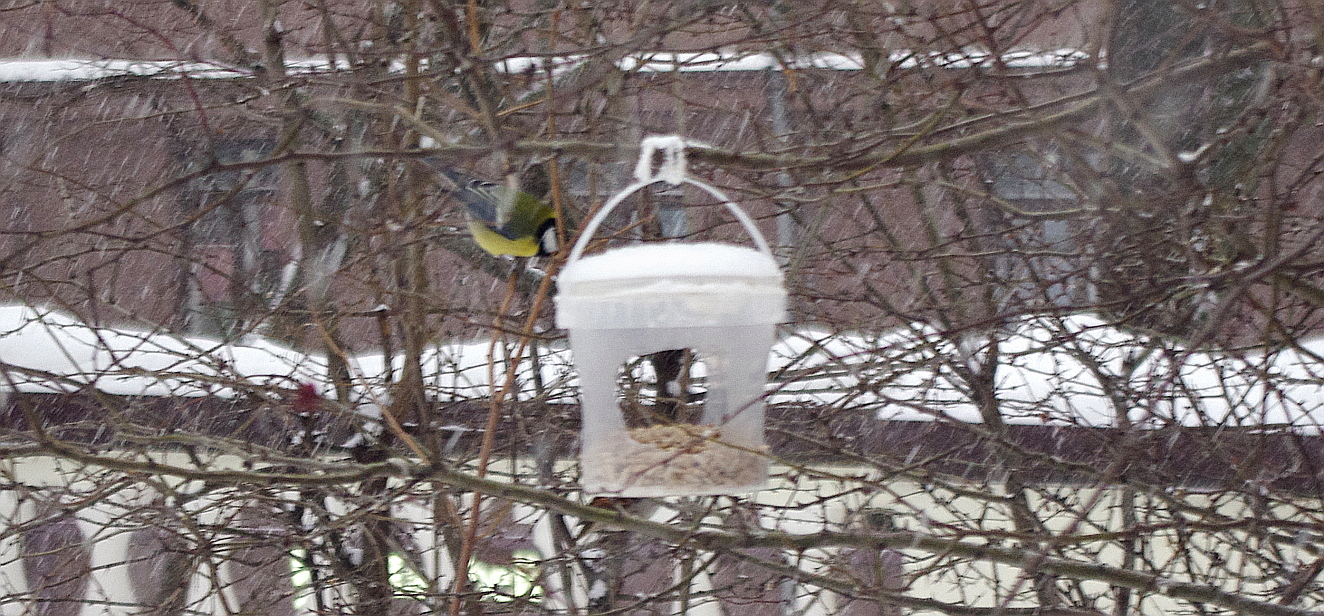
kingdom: Animalia
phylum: Chordata
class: Aves
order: Passeriformes
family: Paridae
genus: Parus
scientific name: Parus major
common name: Great tit
